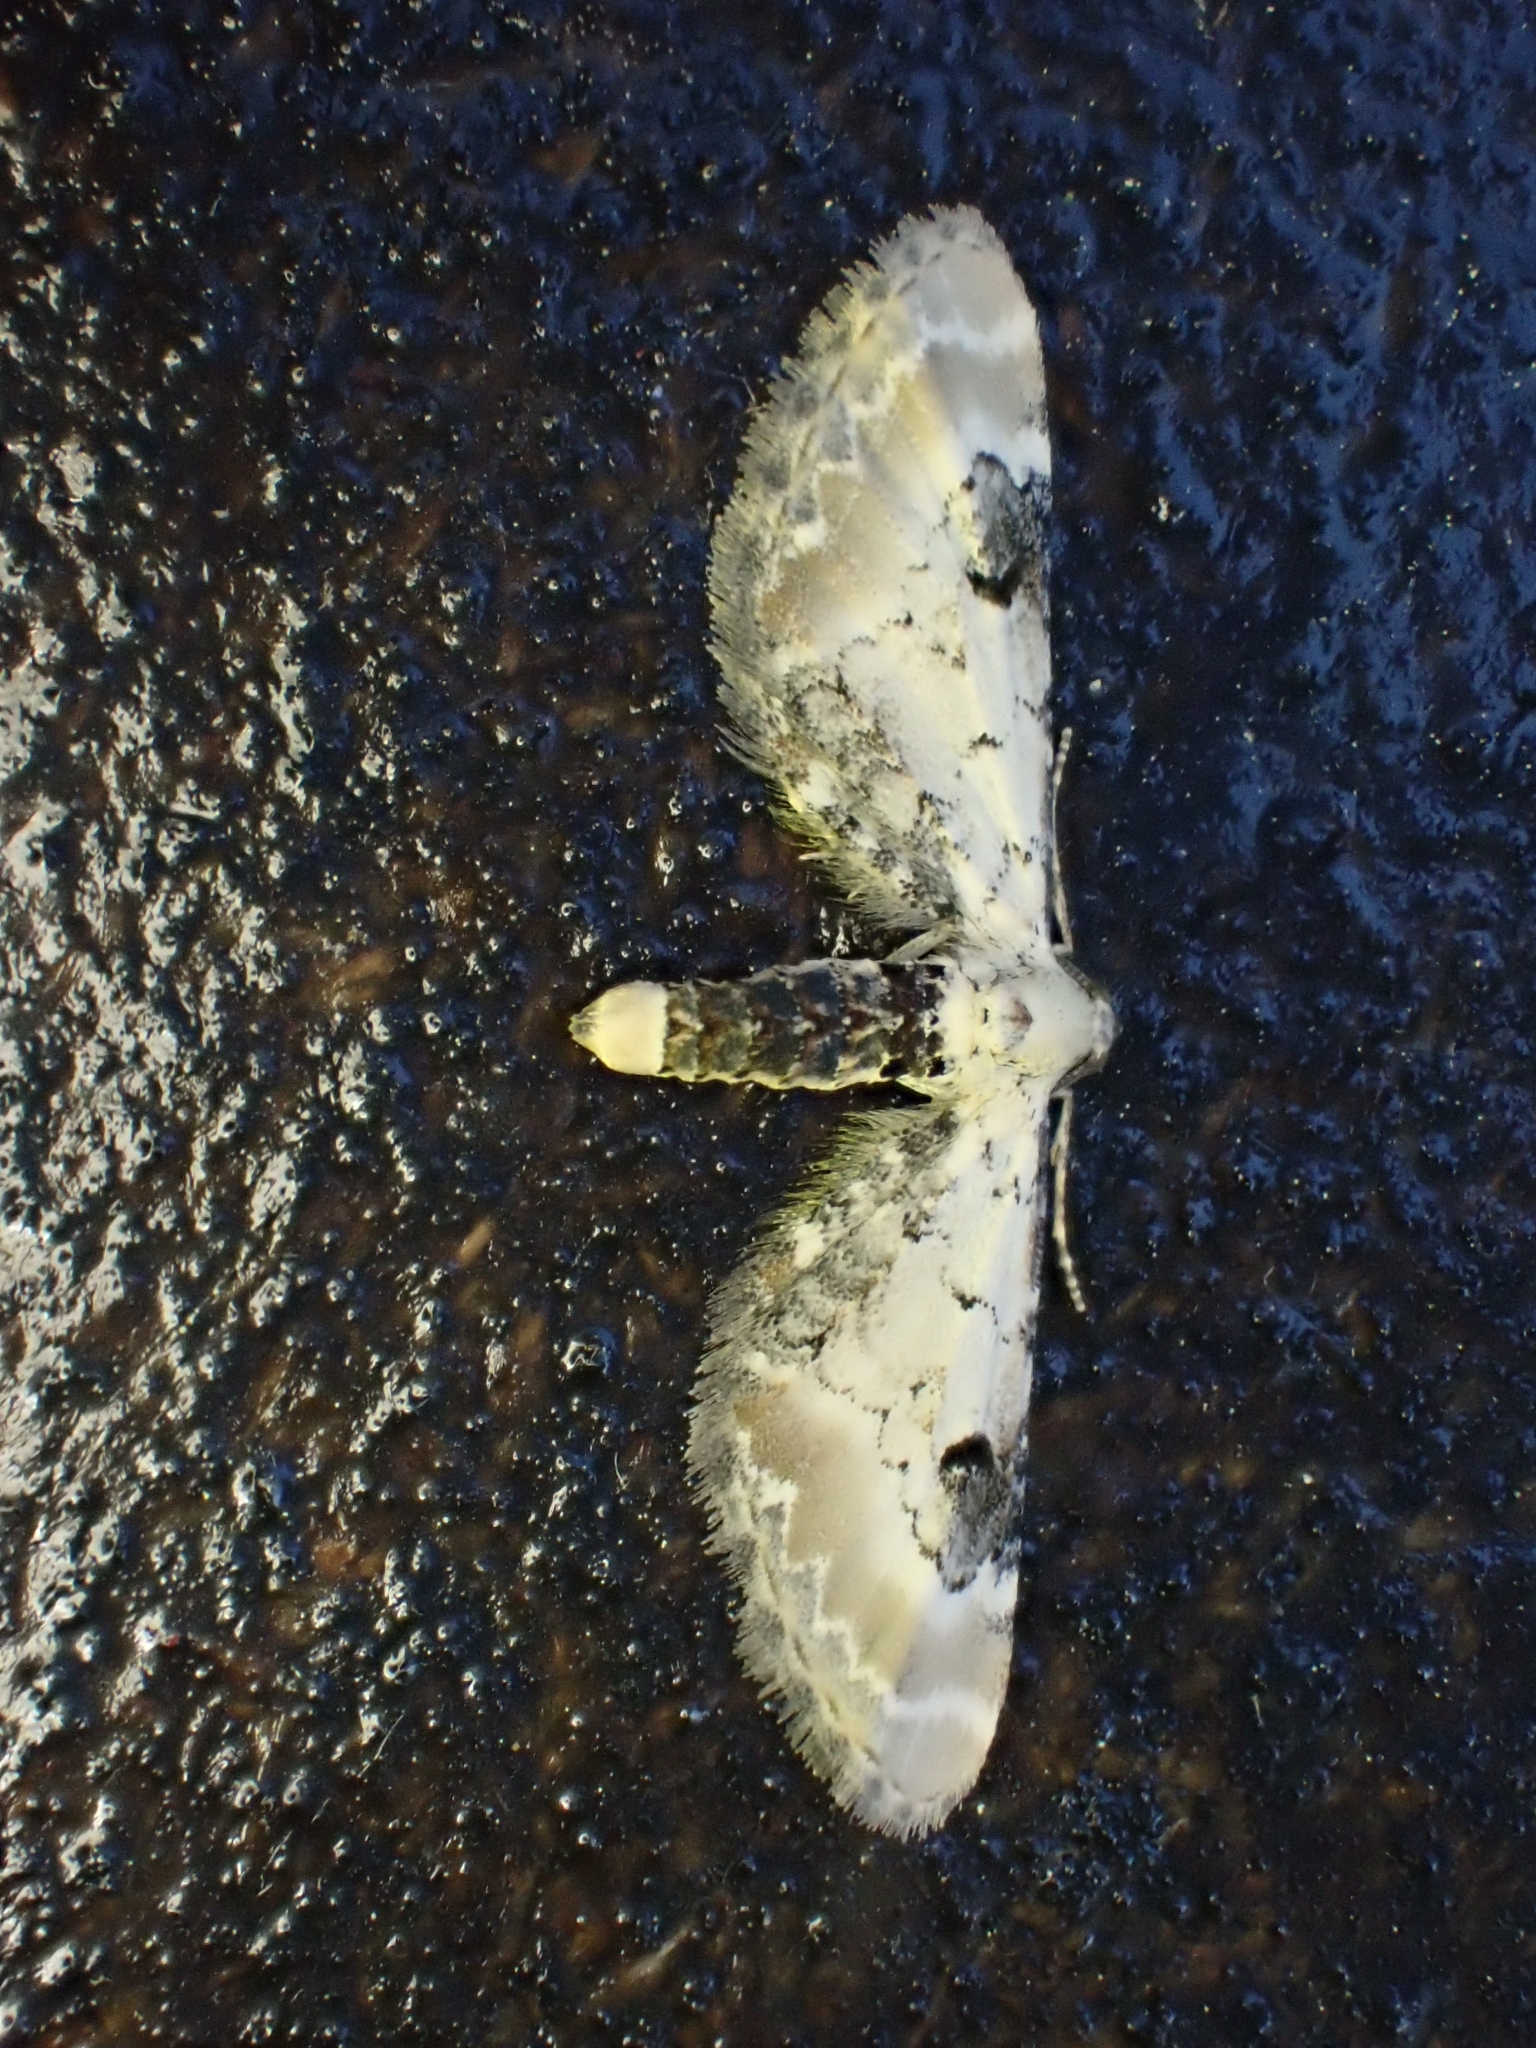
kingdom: Animalia
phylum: Arthropoda
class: Insecta
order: Lepidoptera
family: Geometridae
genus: Eupithecia
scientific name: Eupithecia centaureata
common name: Lime-speck pug
